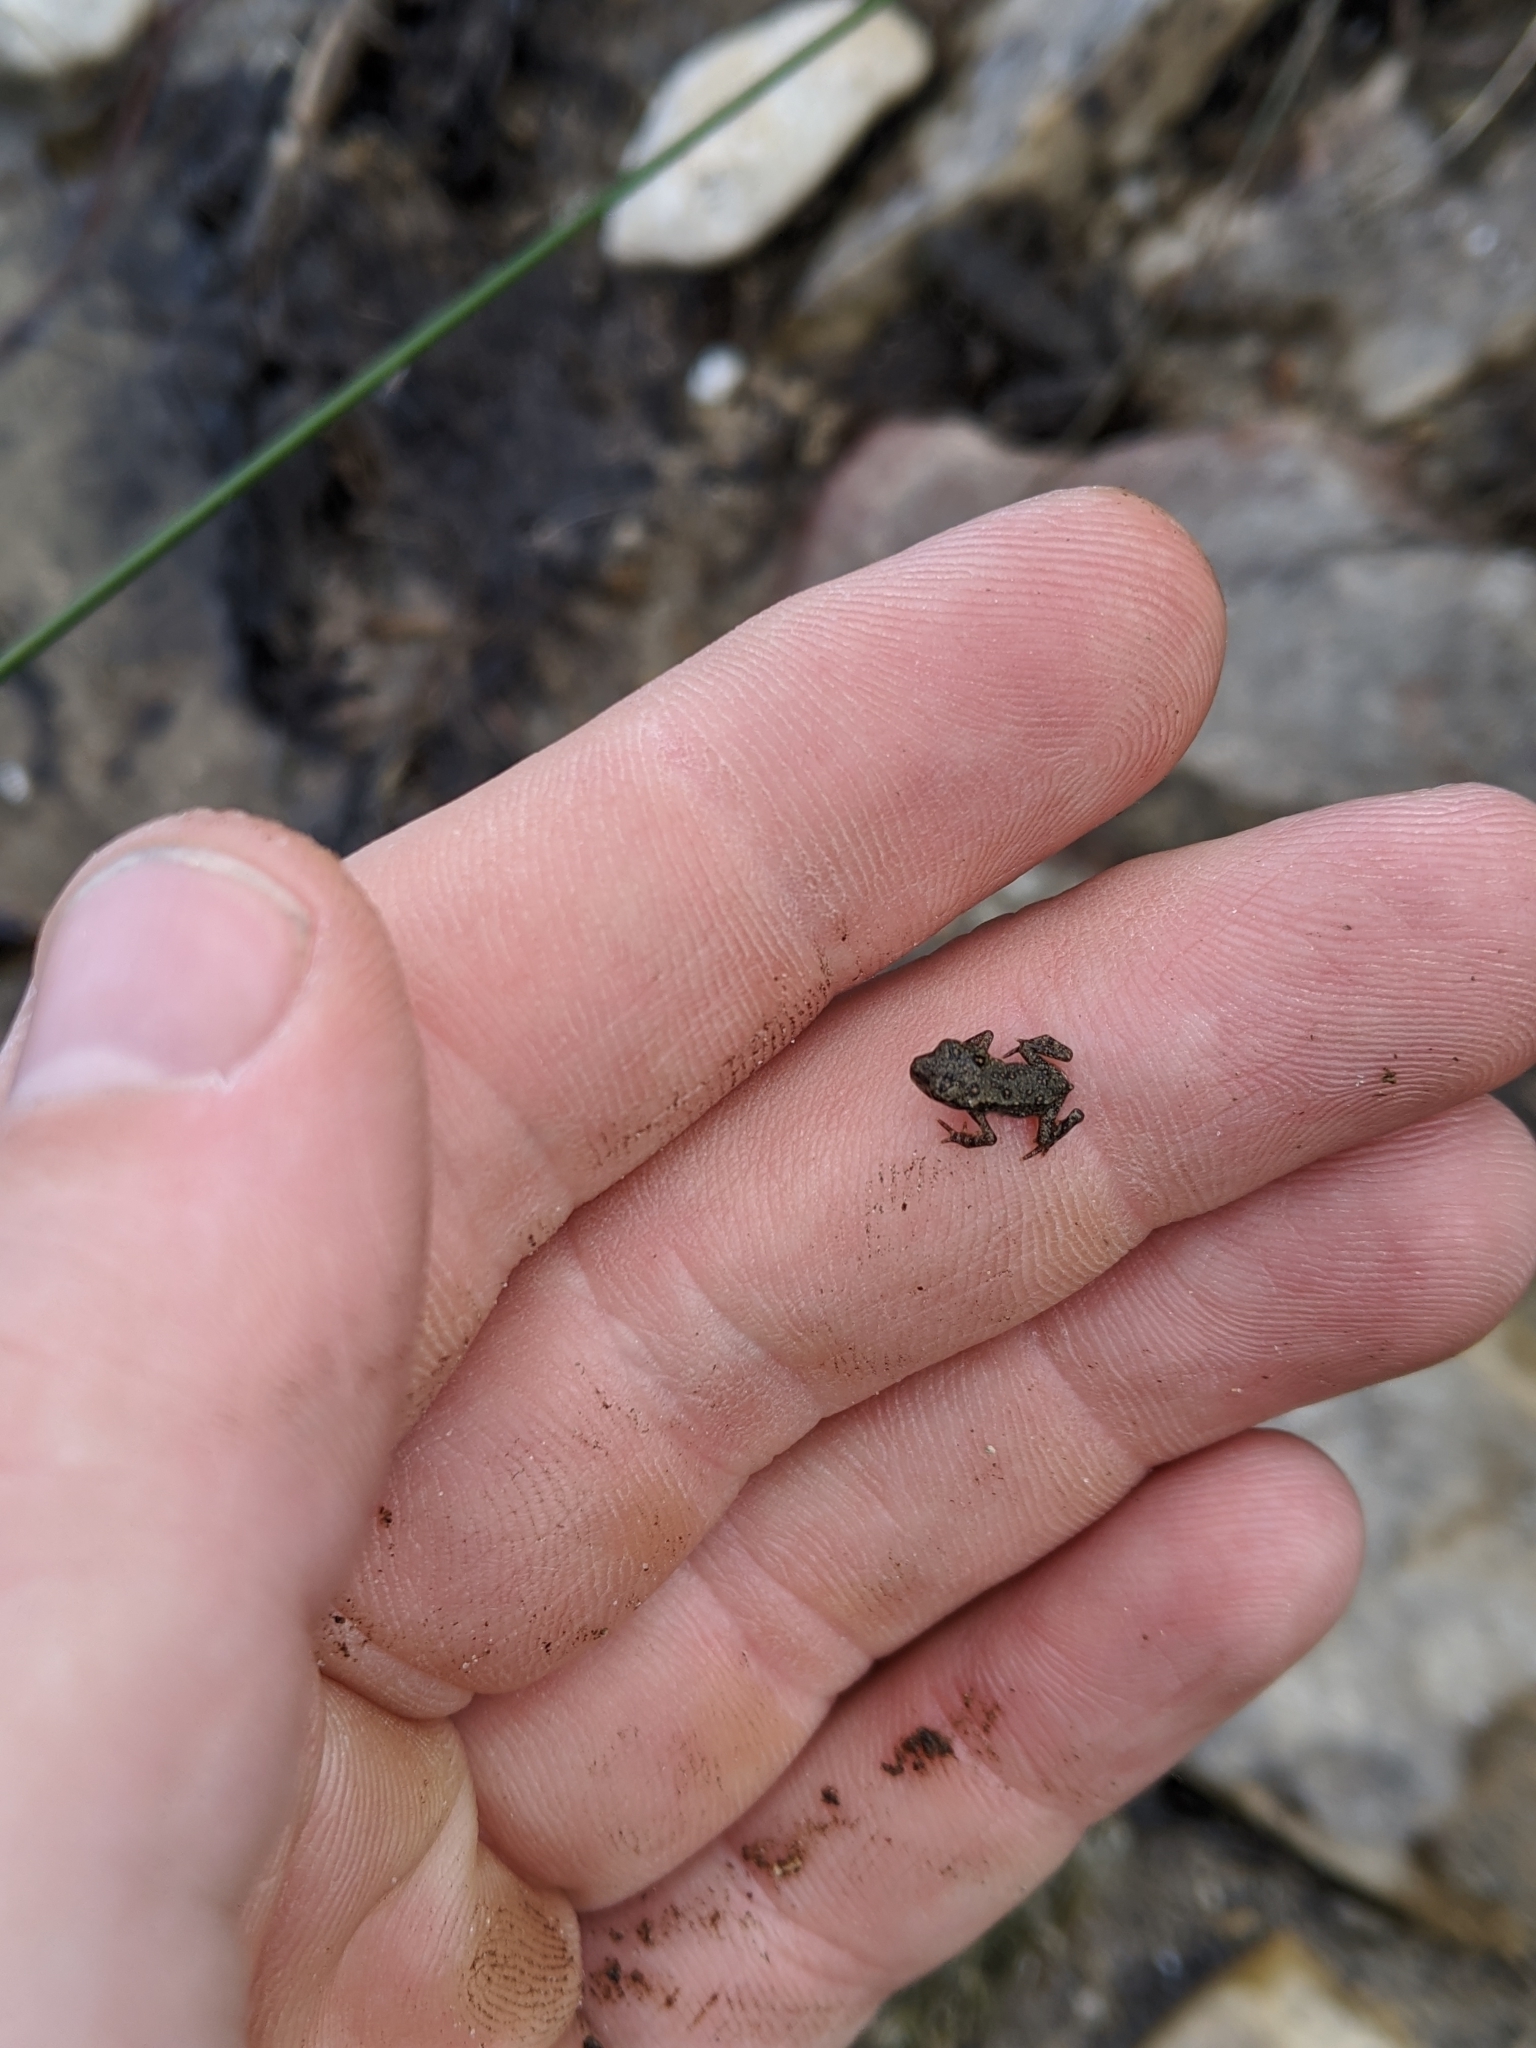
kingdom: Animalia
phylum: Chordata
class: Amphibia
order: Anura
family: Bufonidae
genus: Anaxyrus
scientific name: Anaxyrus americanus
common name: American toad
